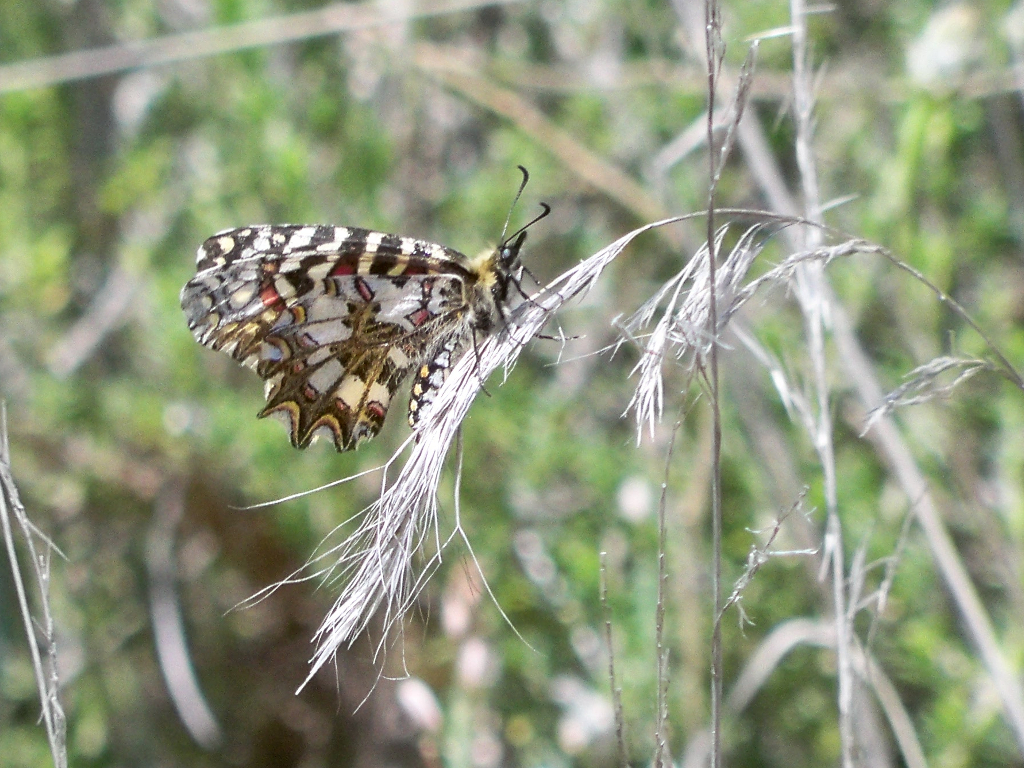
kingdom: Animalia
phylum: Arthropoda
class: Insecta
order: Lepidoptera
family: Papilionidae
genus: Zerynthia
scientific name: Zerynthia rumina
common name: Spanish festoon
